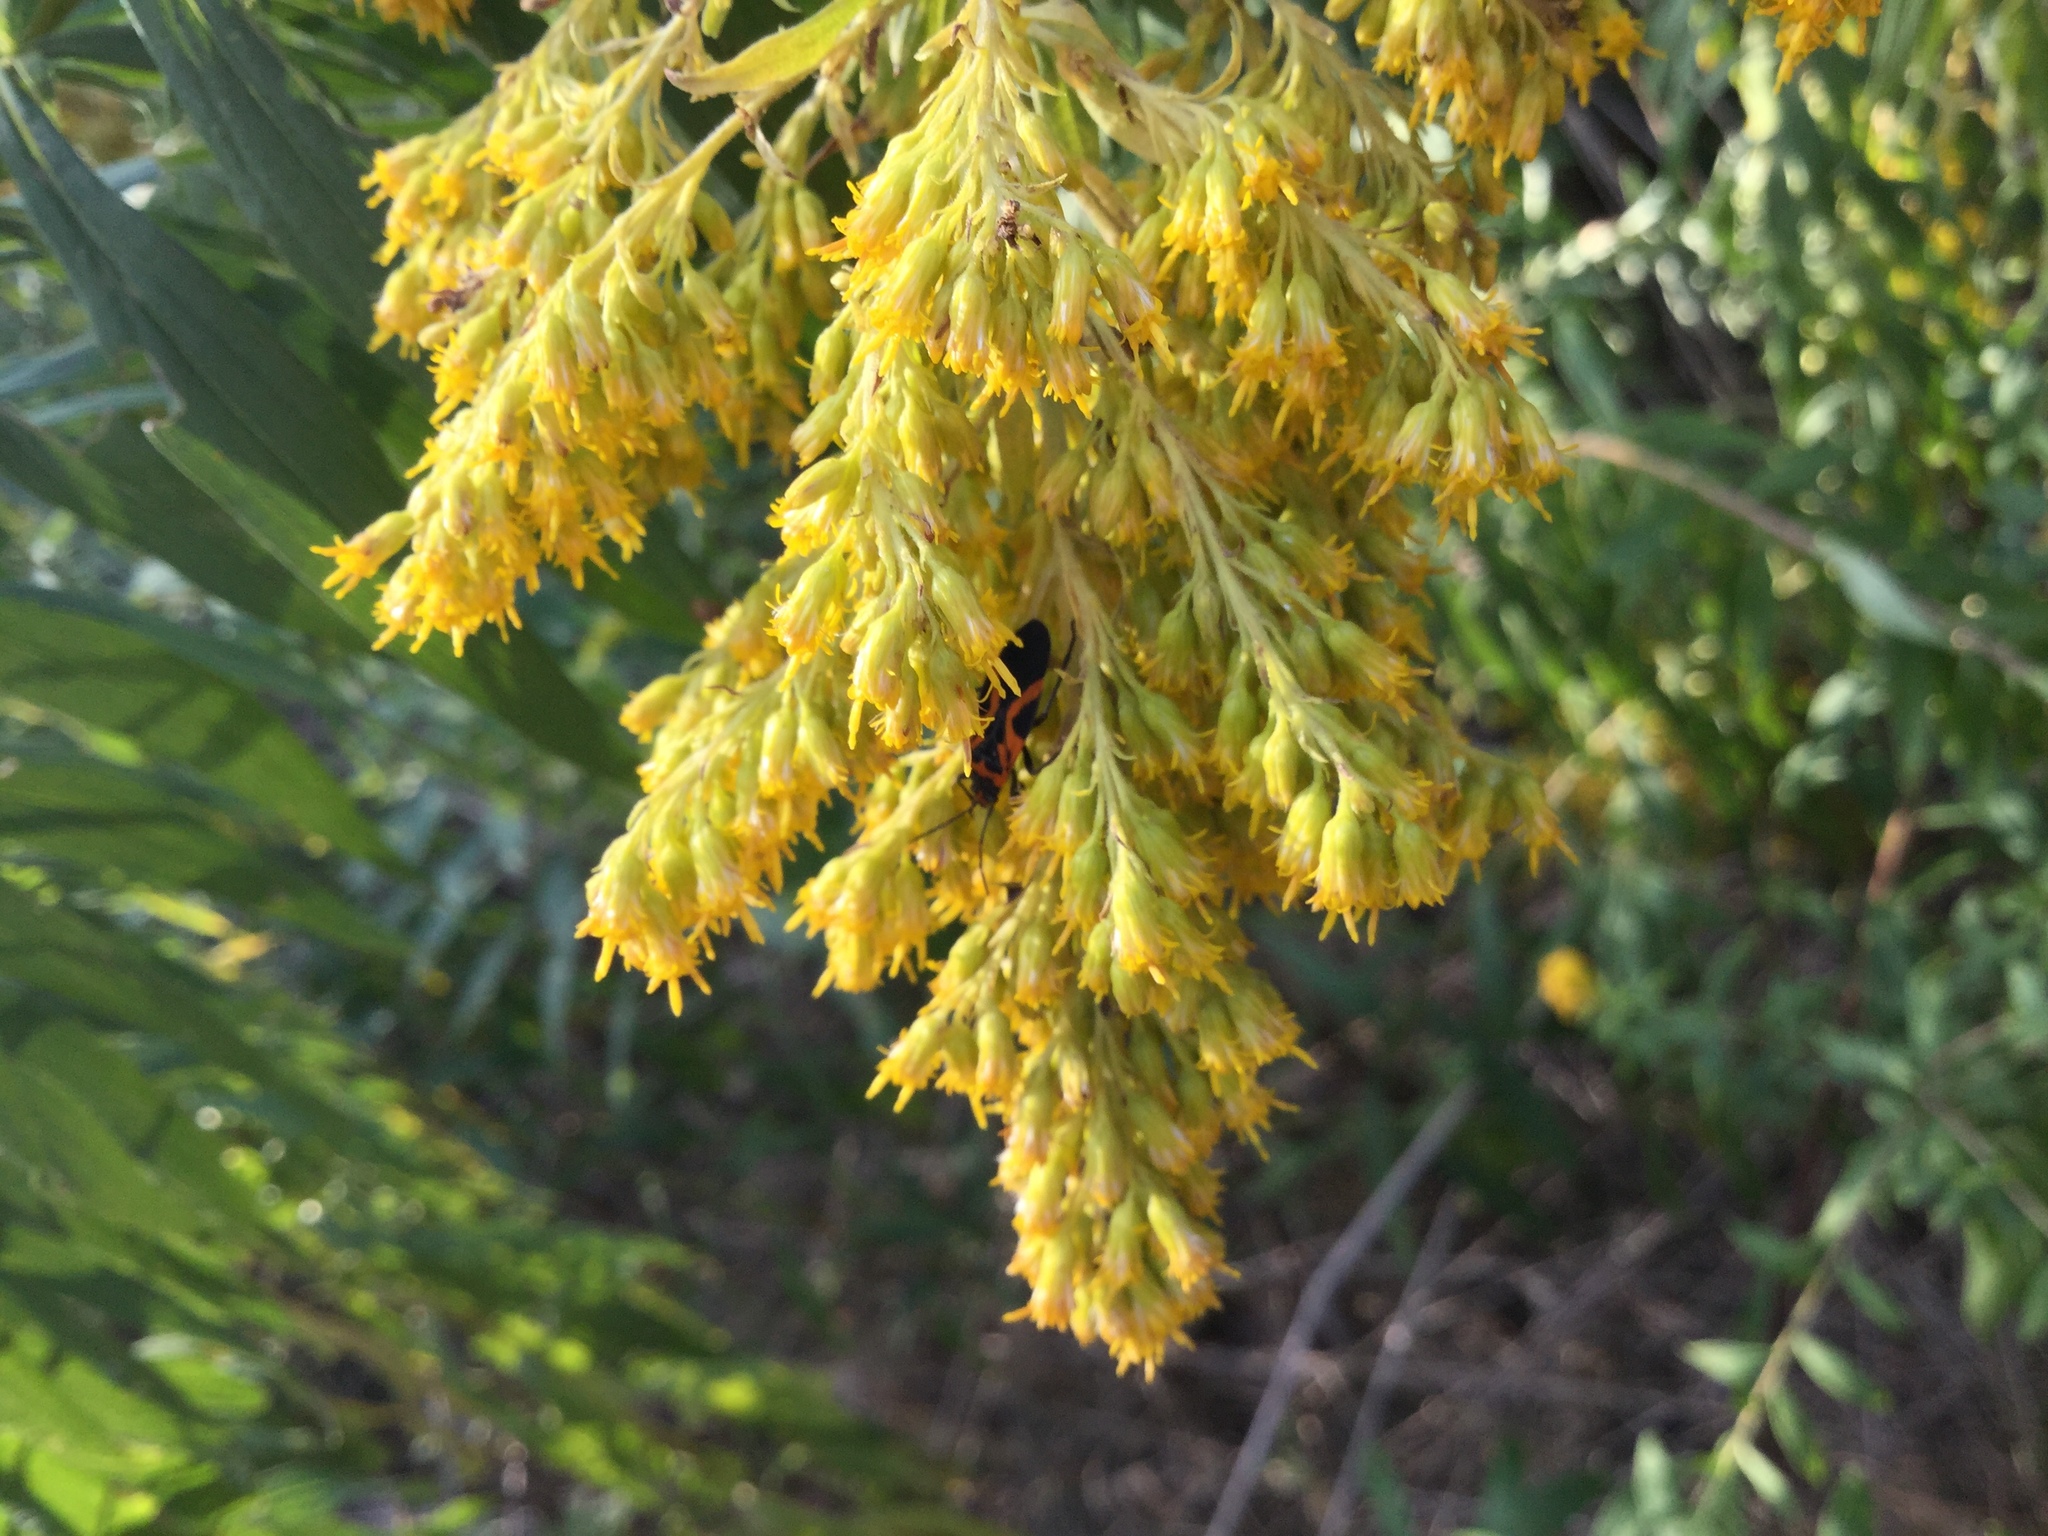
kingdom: Animalia
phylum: Arthropoda
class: Insecta
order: Hemiptera
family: Lygaeidae
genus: Lygaeus
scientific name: Lygaeus turcicus
